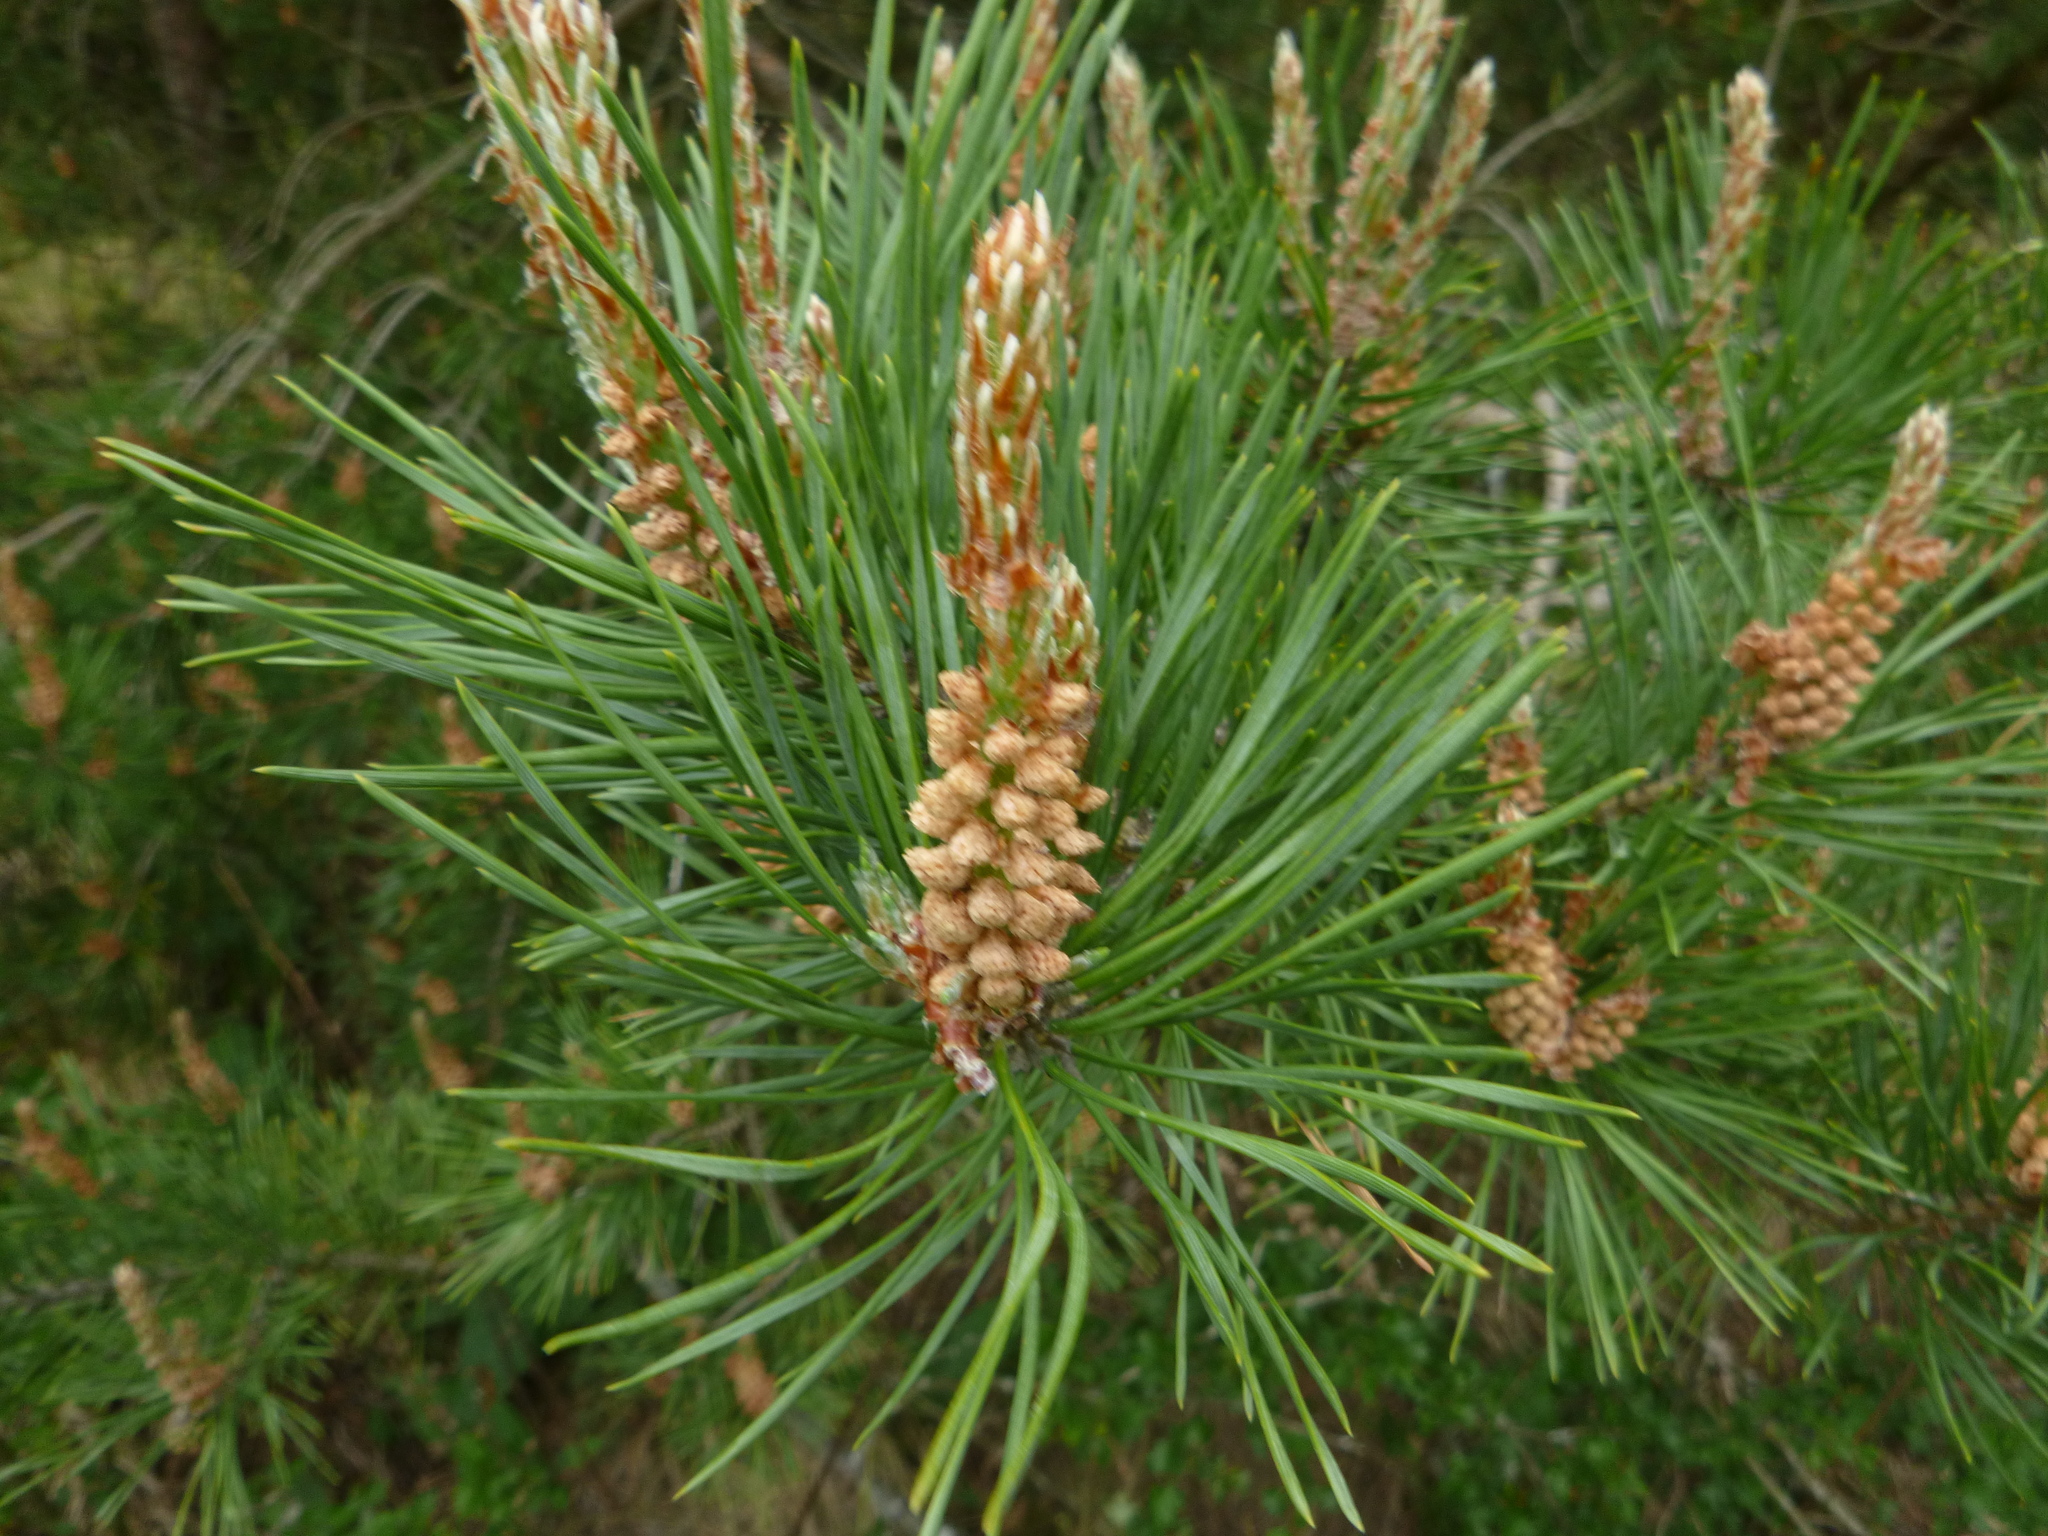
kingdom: Plantae
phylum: Tracheophyta
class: Pinopsida
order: Pinales
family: Pinaceae
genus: Pinus
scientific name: Pinus sylvestris
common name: Scots pine
